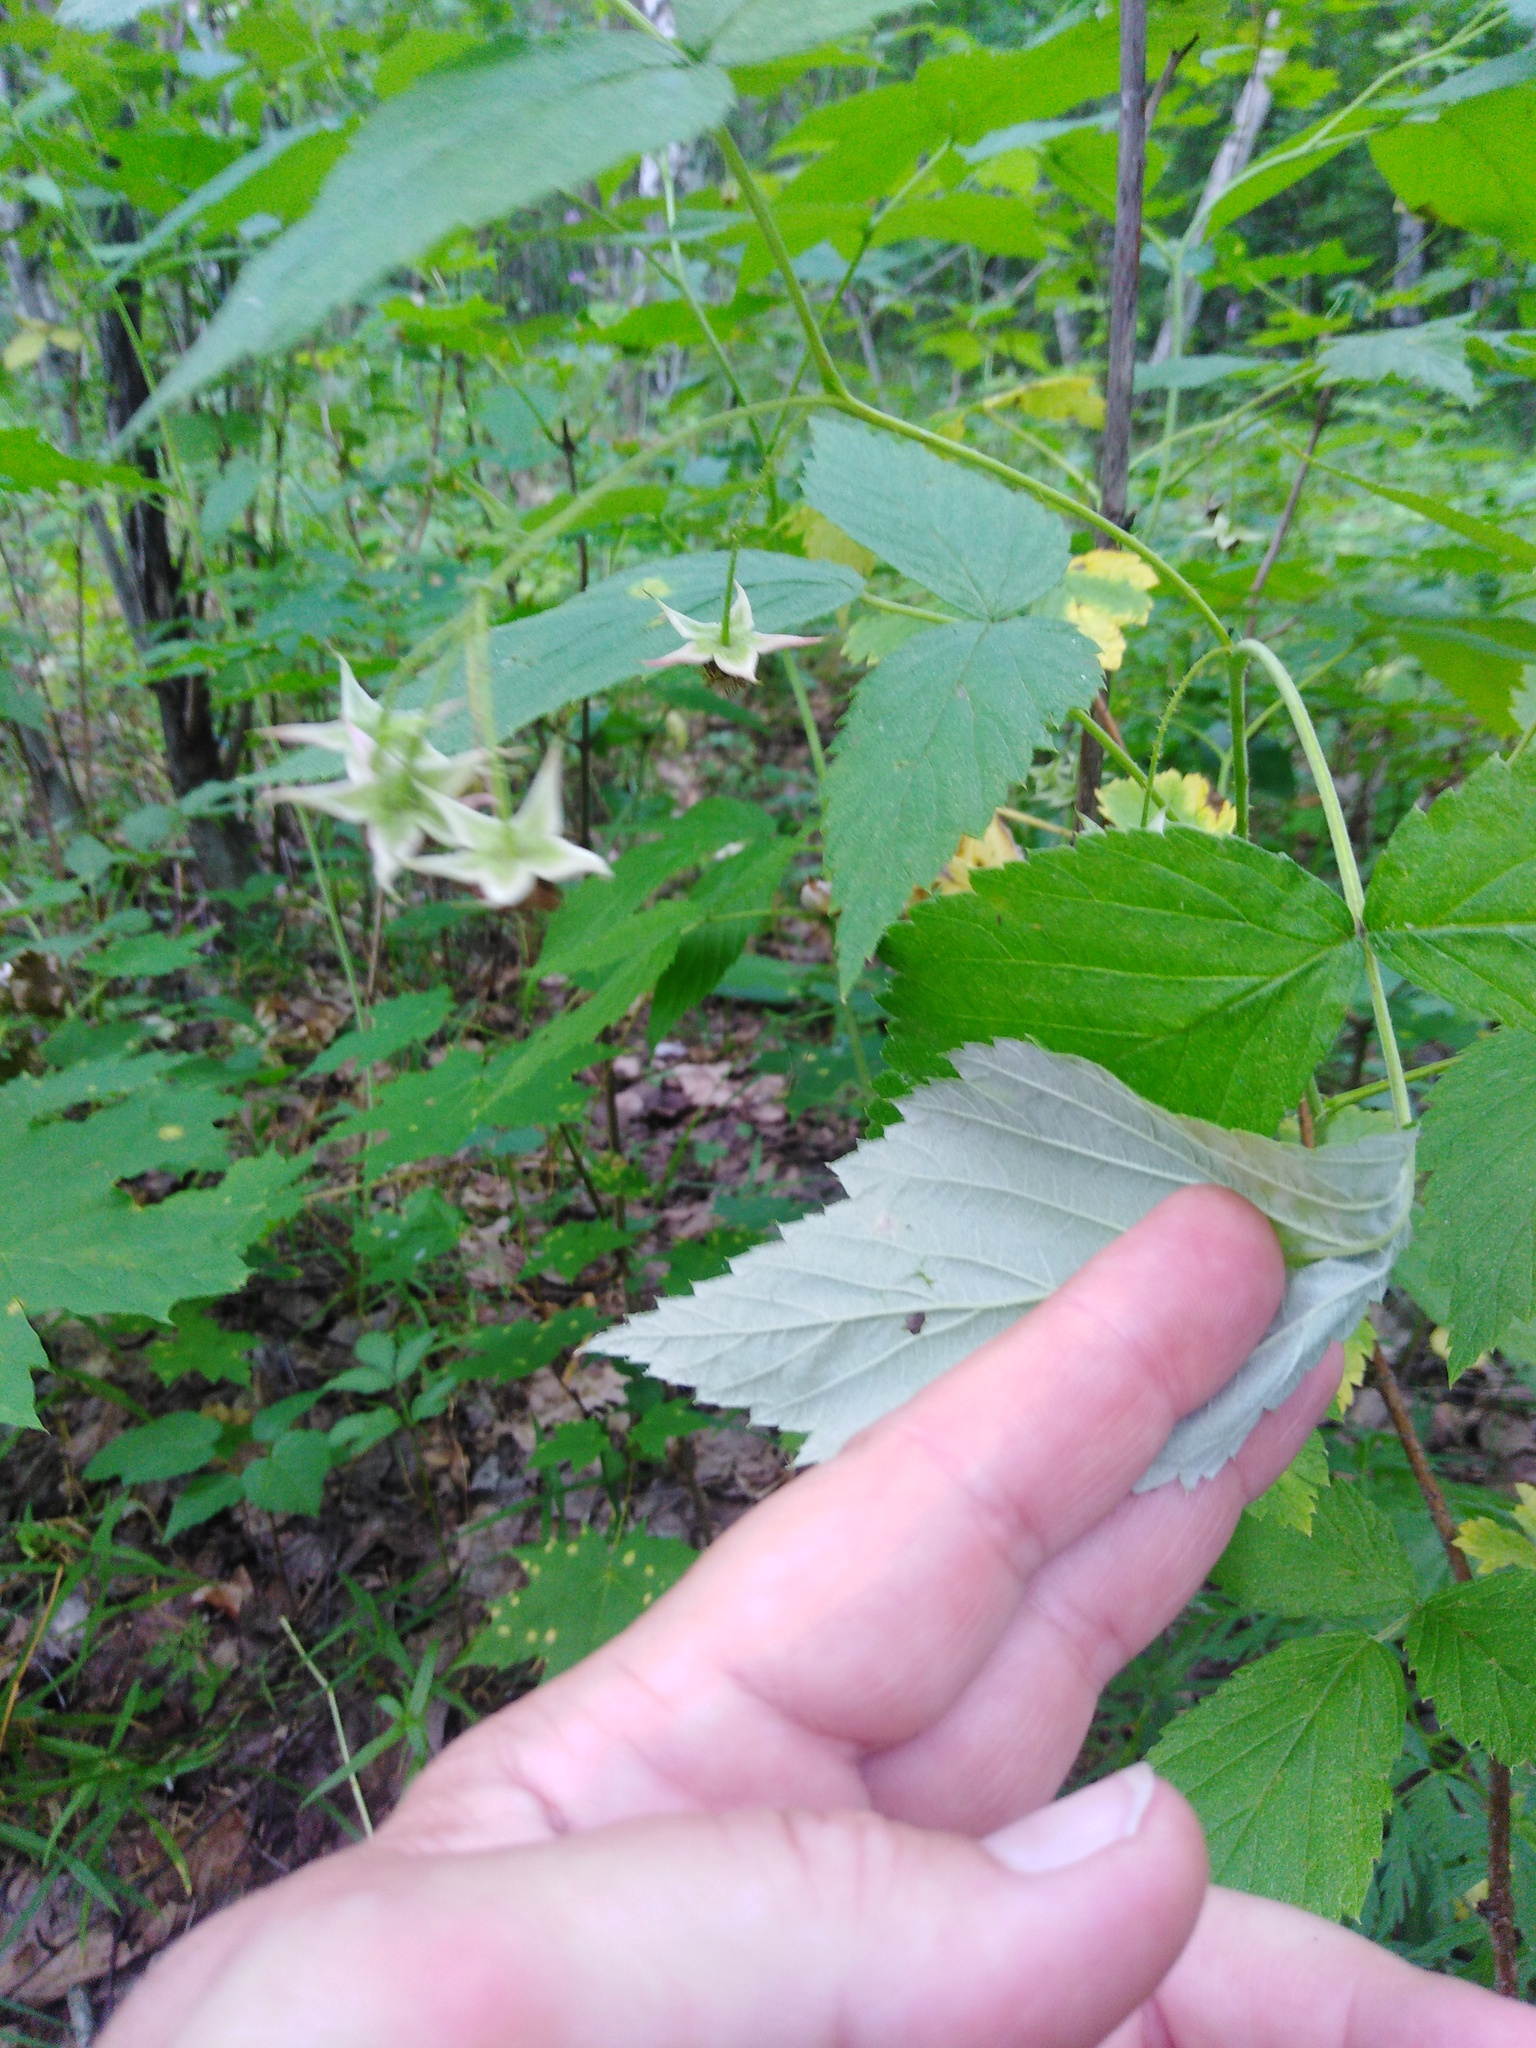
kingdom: Plantae
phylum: Tracheophyta
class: Magnoliopsida
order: Rosales
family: Rosaceae
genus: Rubus
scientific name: Rubus idaeus
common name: Raspberry
